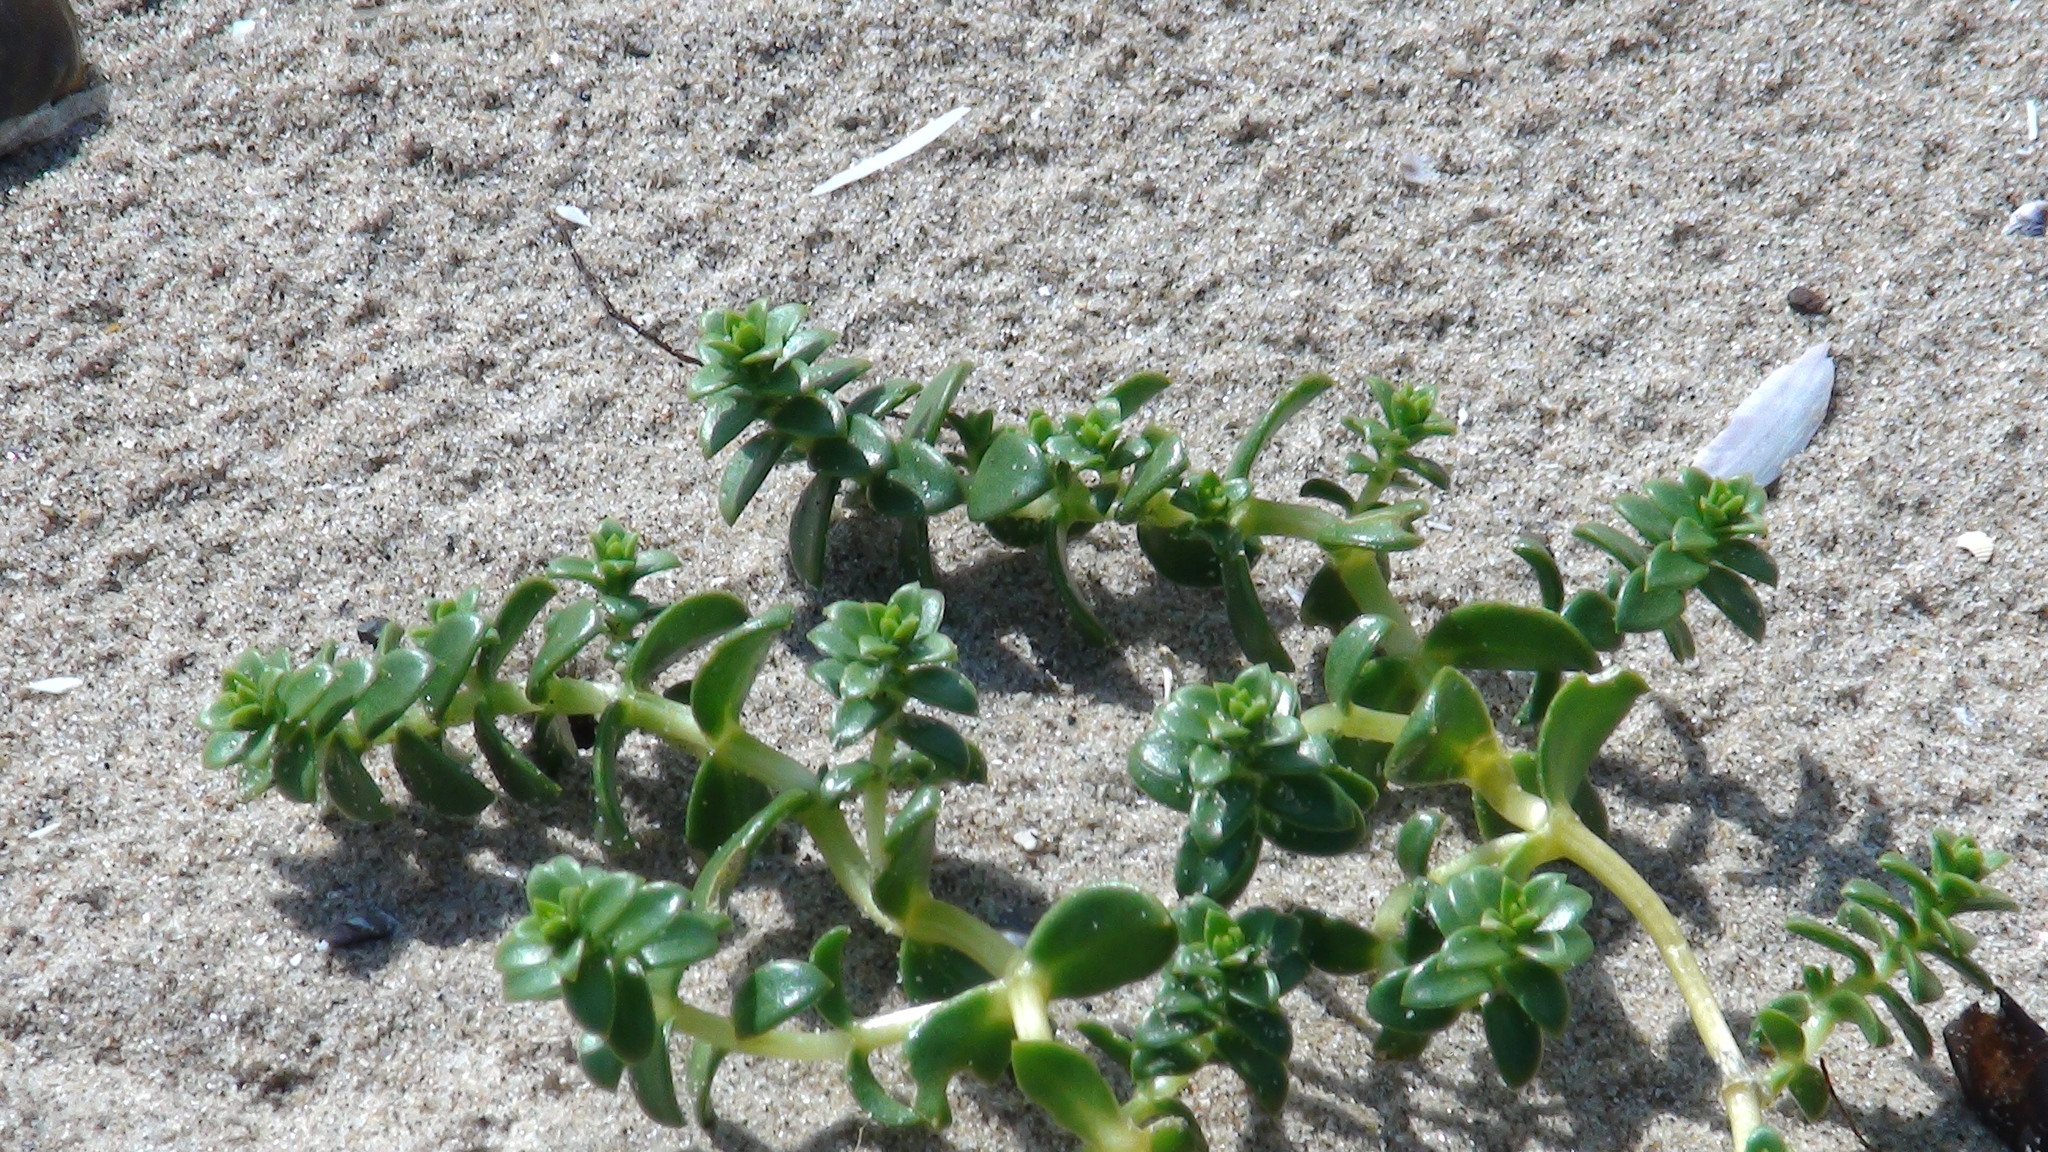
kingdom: Plantae
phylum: Tracheophyta
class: Magnoliopsida
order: Caryophyllales
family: Caryophyllaceae
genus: Honckenya
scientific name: Honckenya peploides
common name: Sea sandwort
